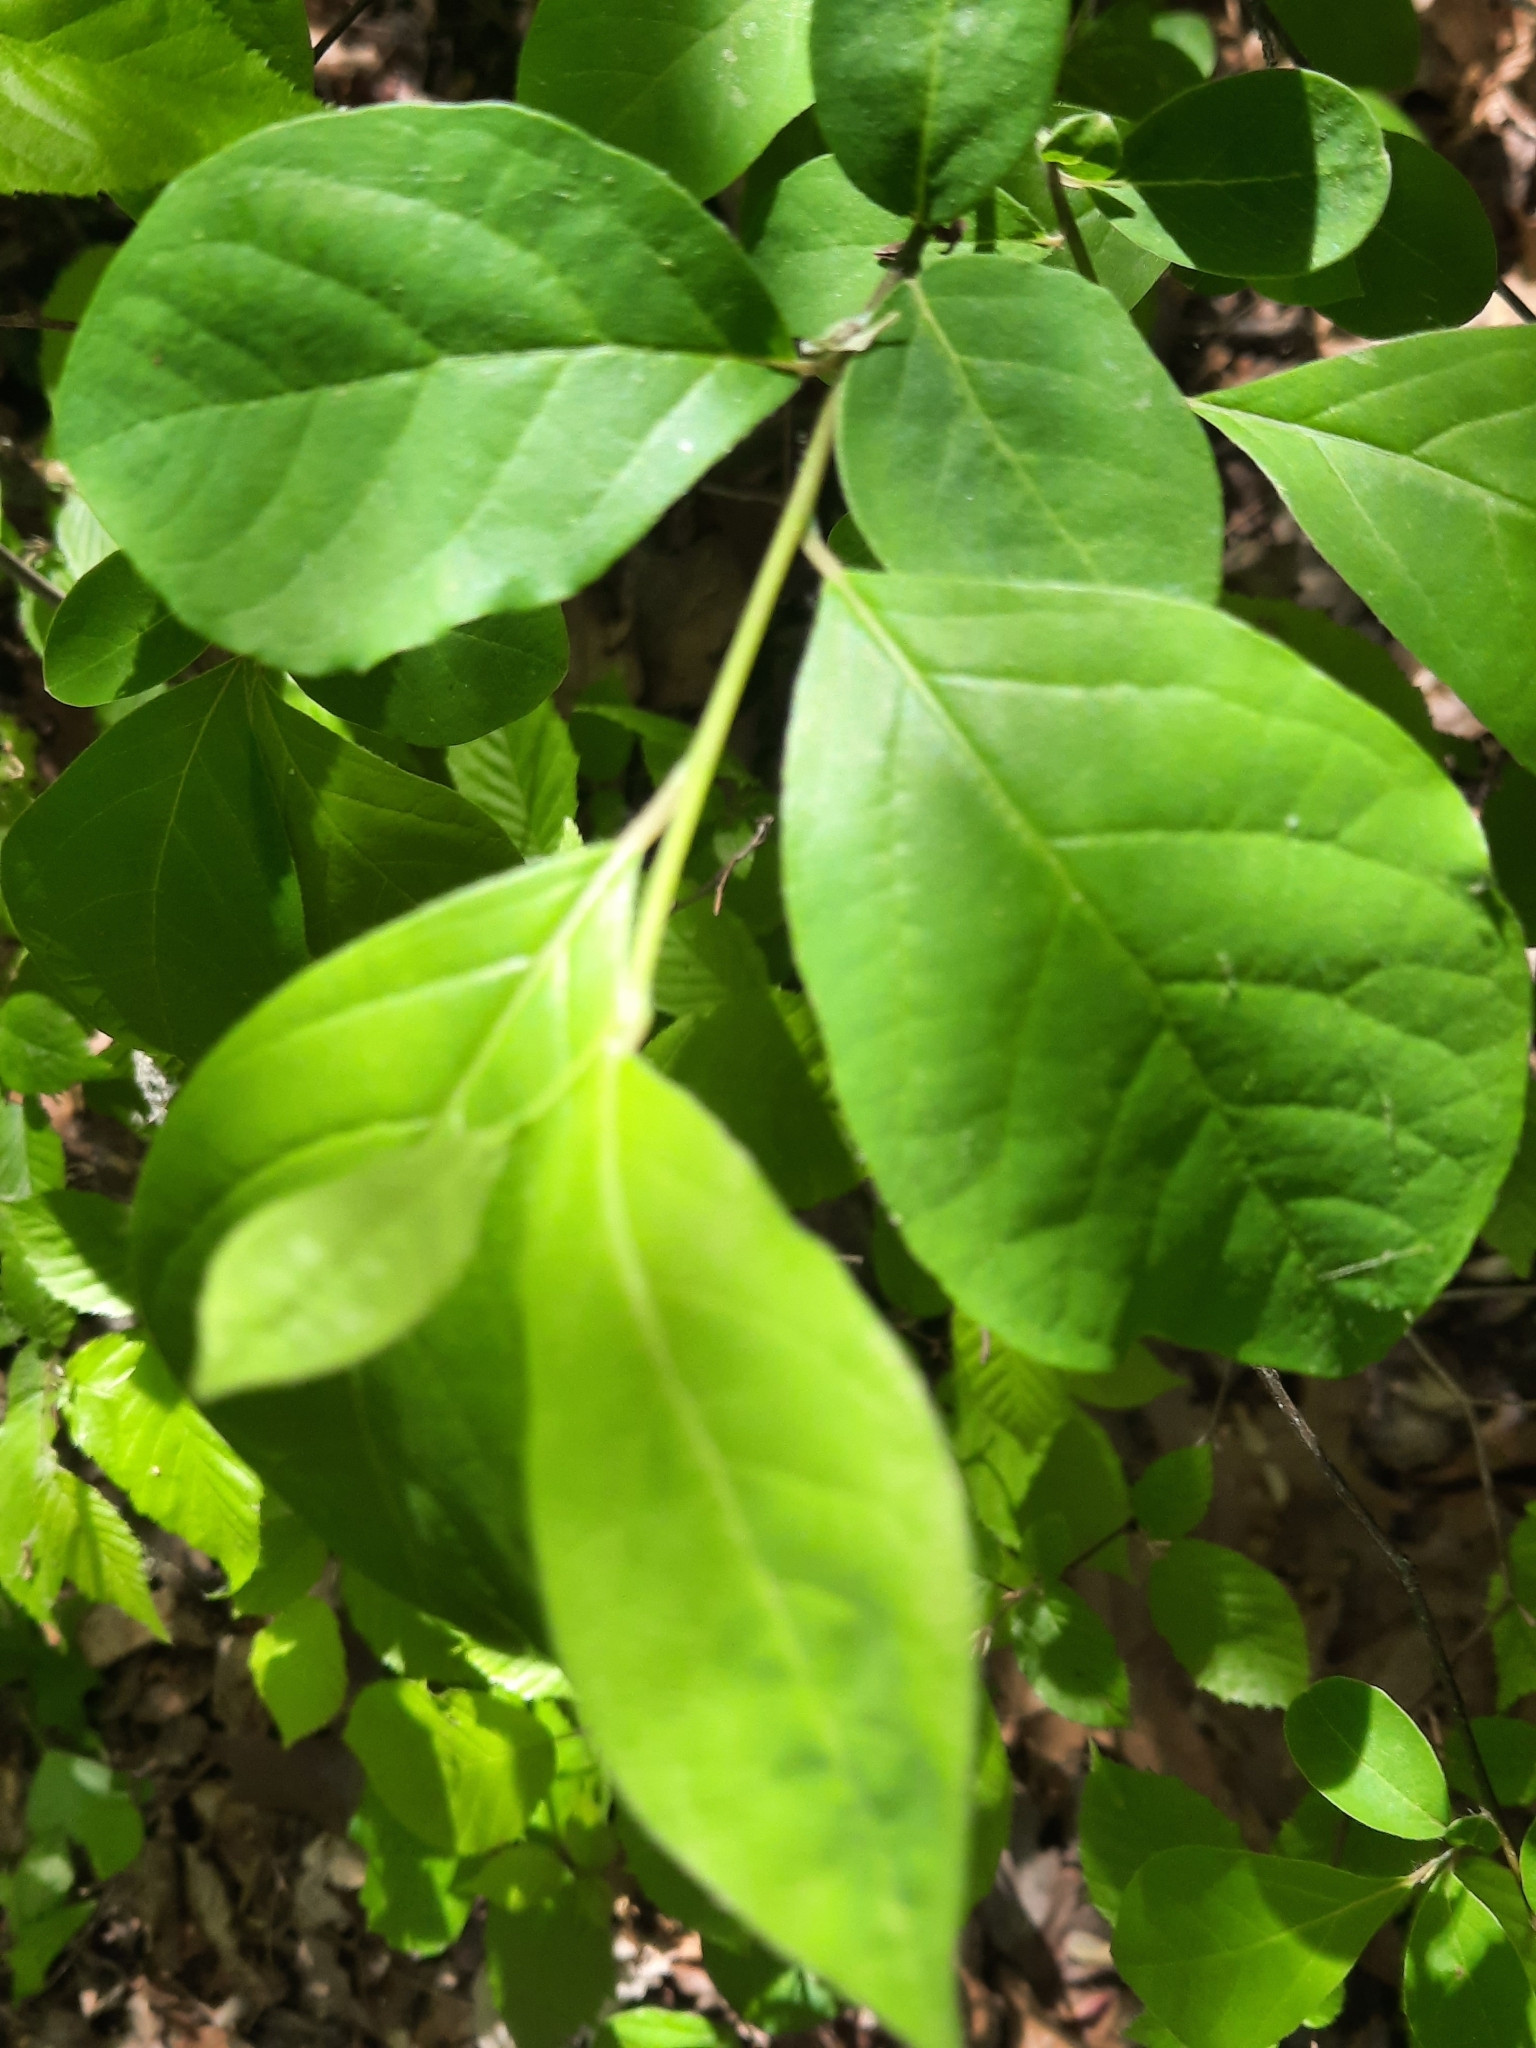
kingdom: Plantae
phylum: Tracheophyta
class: Magnoliopsida
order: Laurales
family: Lauraceae
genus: Lindera
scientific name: Lindera benzoin
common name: Spicebush
